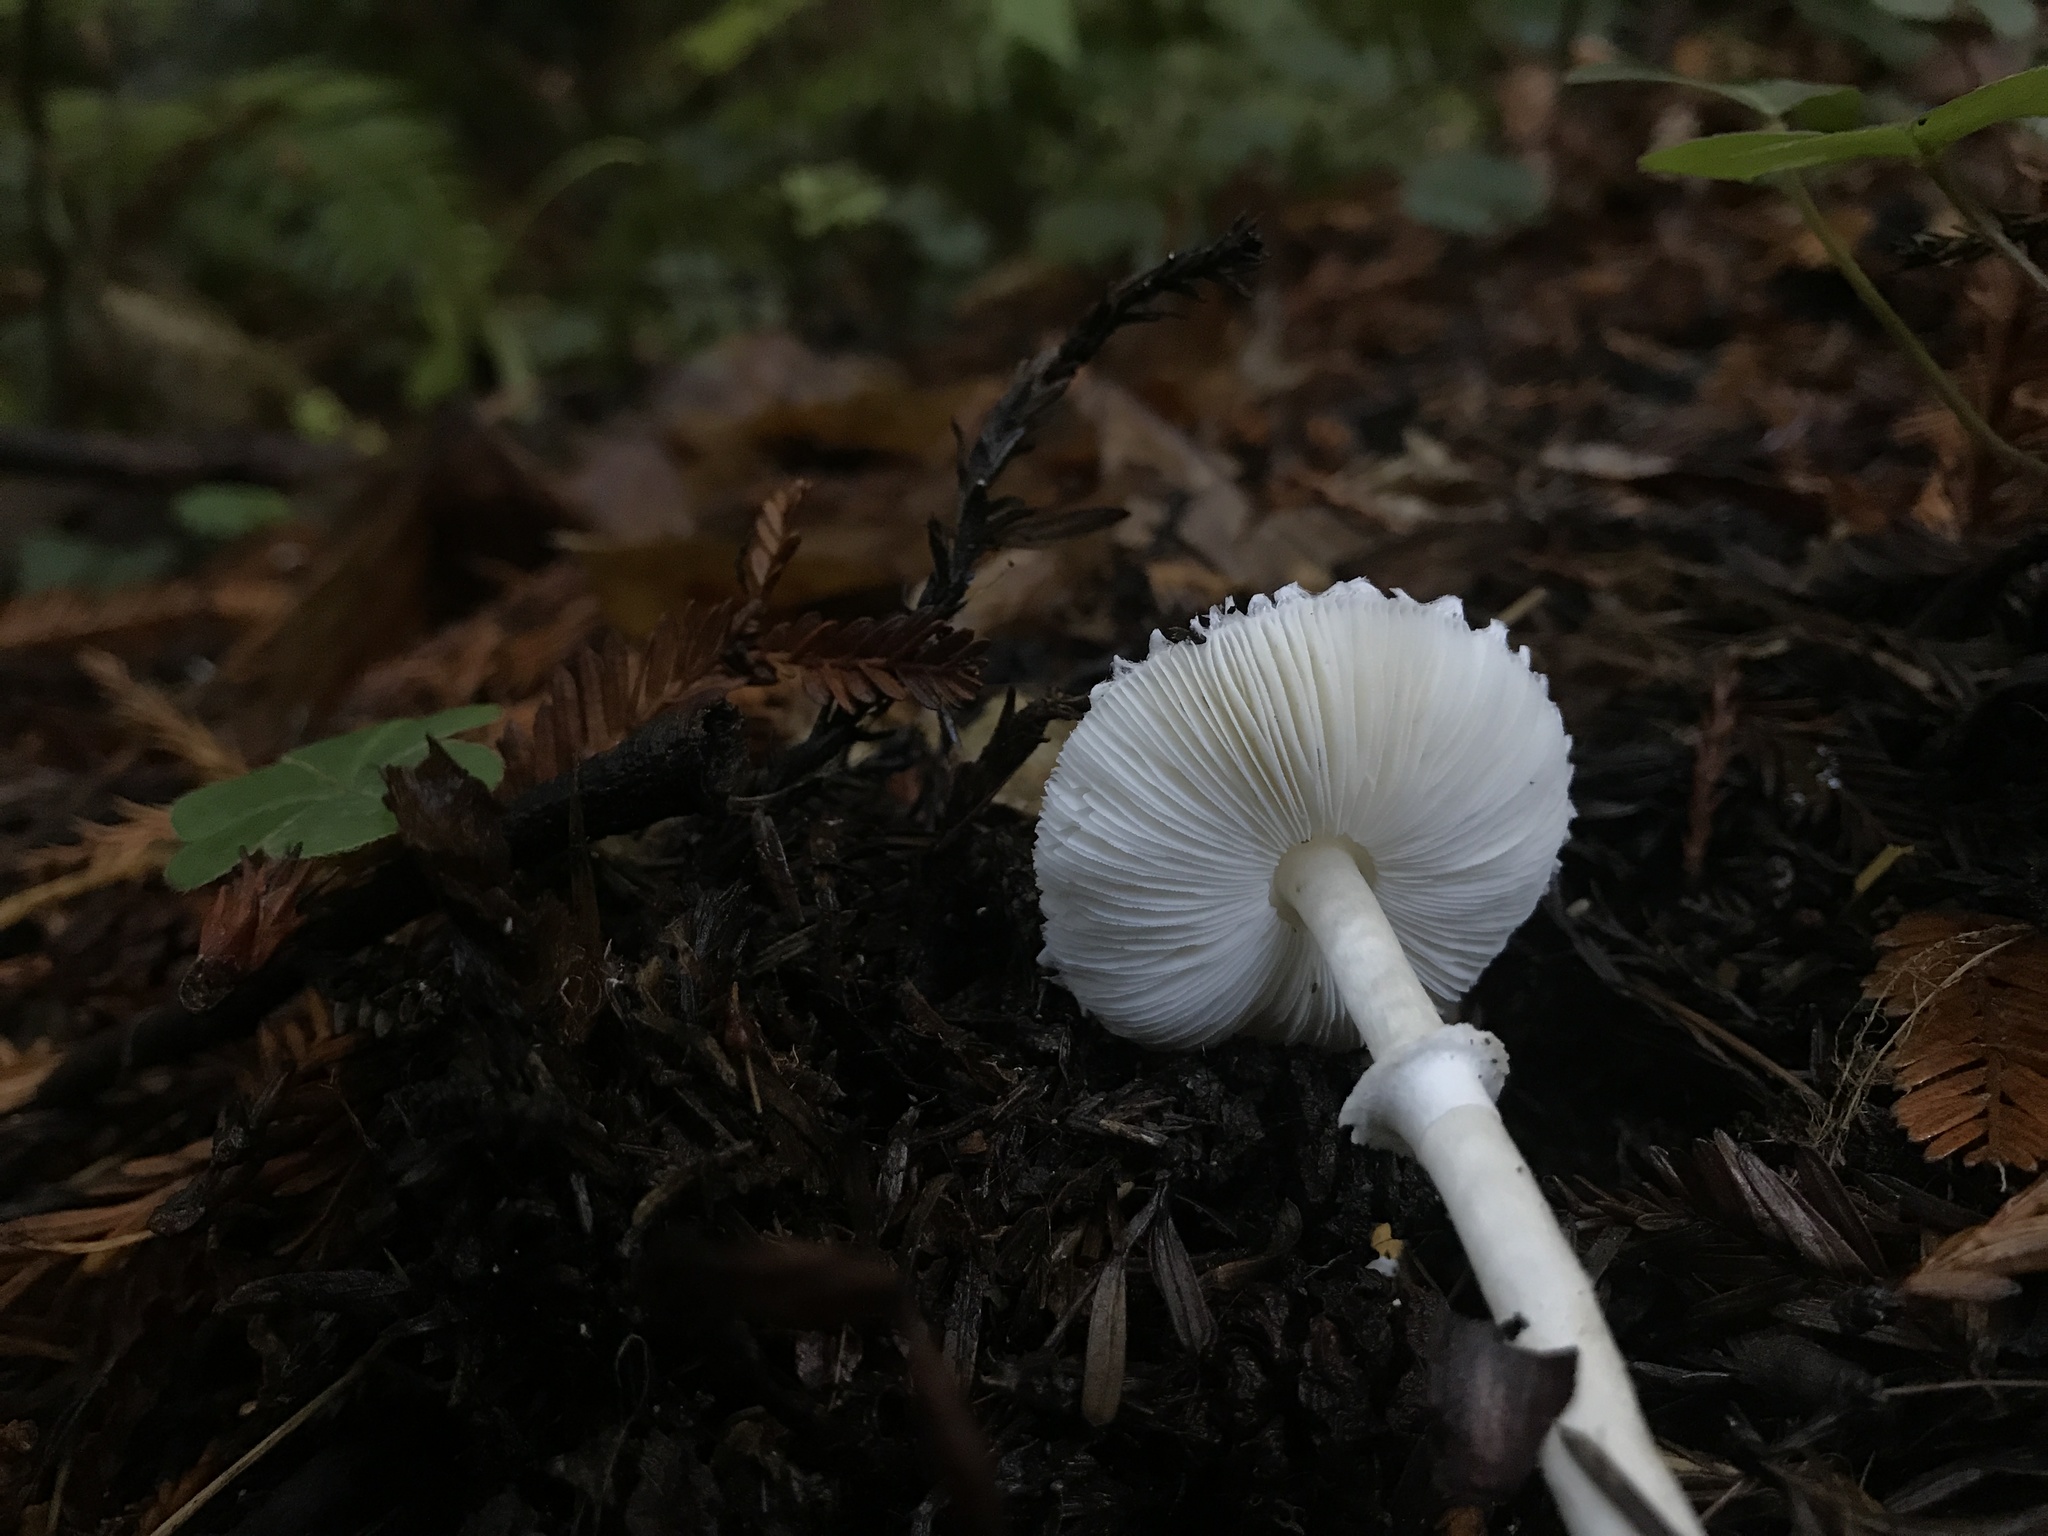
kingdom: Fungi
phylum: Basidiomycota
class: Agaricomycetes
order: Agaricales
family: Agaricaceae
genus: Lepiota
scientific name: Lepiota rubrotinctoides
